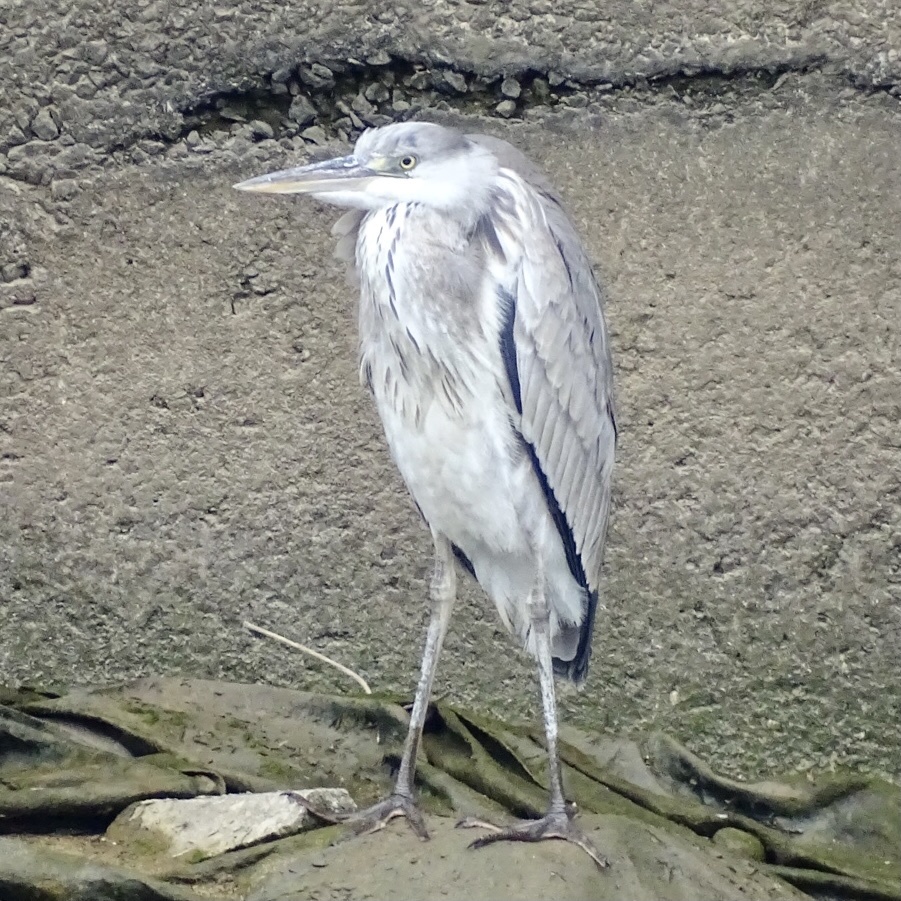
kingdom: Animalia
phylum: Chordata
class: Aves
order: Pelecaniformes
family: Ardeidae
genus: Ardea
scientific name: Ardea cinerea
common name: Grey heron
